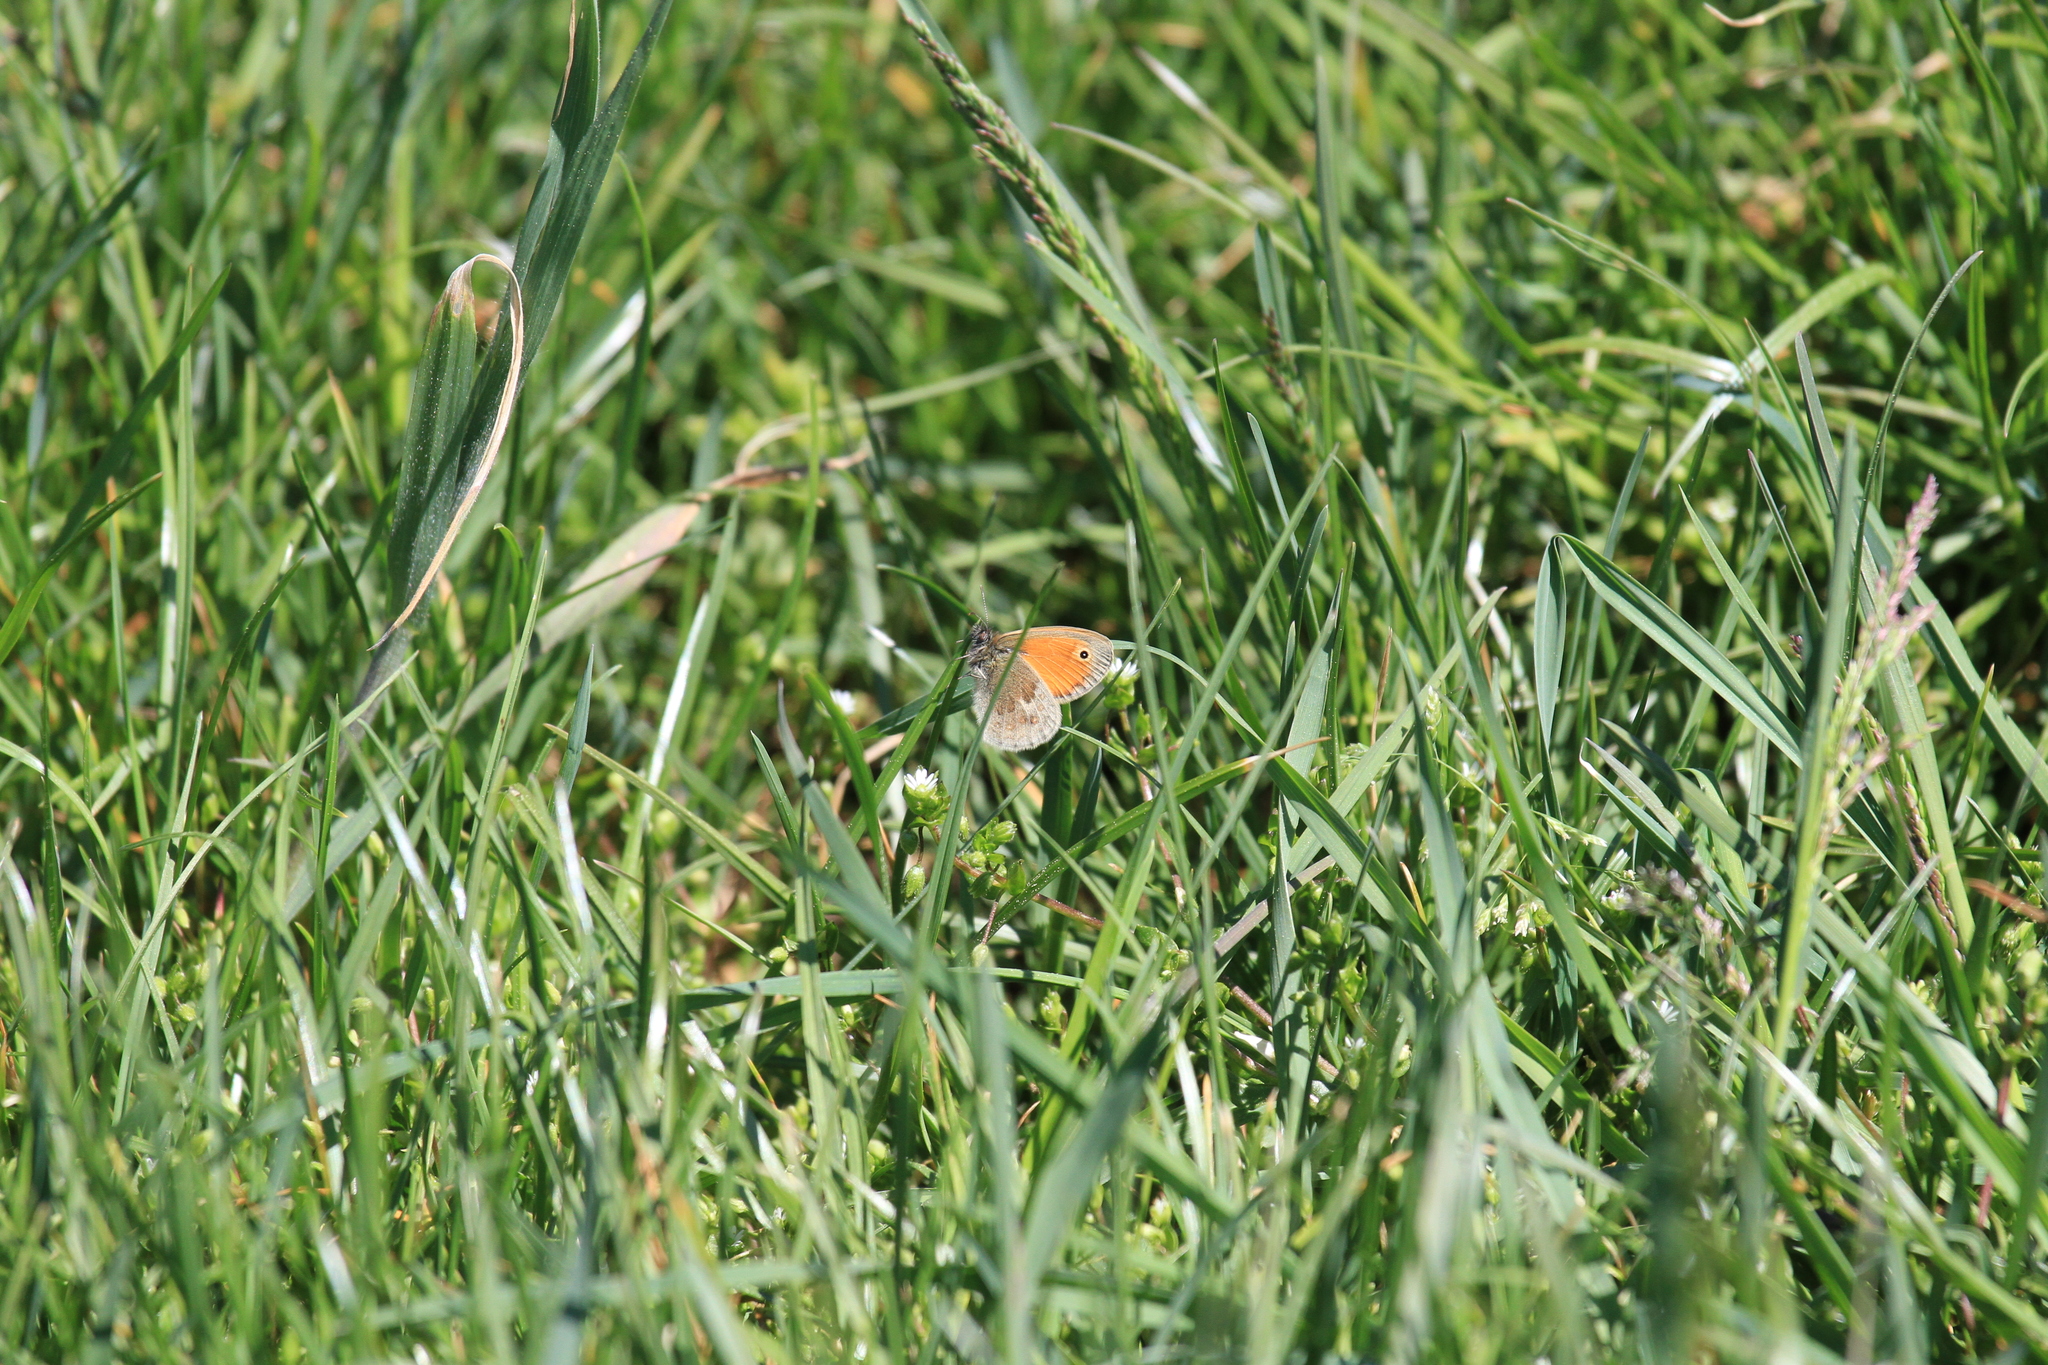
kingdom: Animalia
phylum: Arthropoda
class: Insecta
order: Lepidoptera
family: Nymphalidae
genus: Coenonympha
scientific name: Coenonympha pamphilus
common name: Small heath
